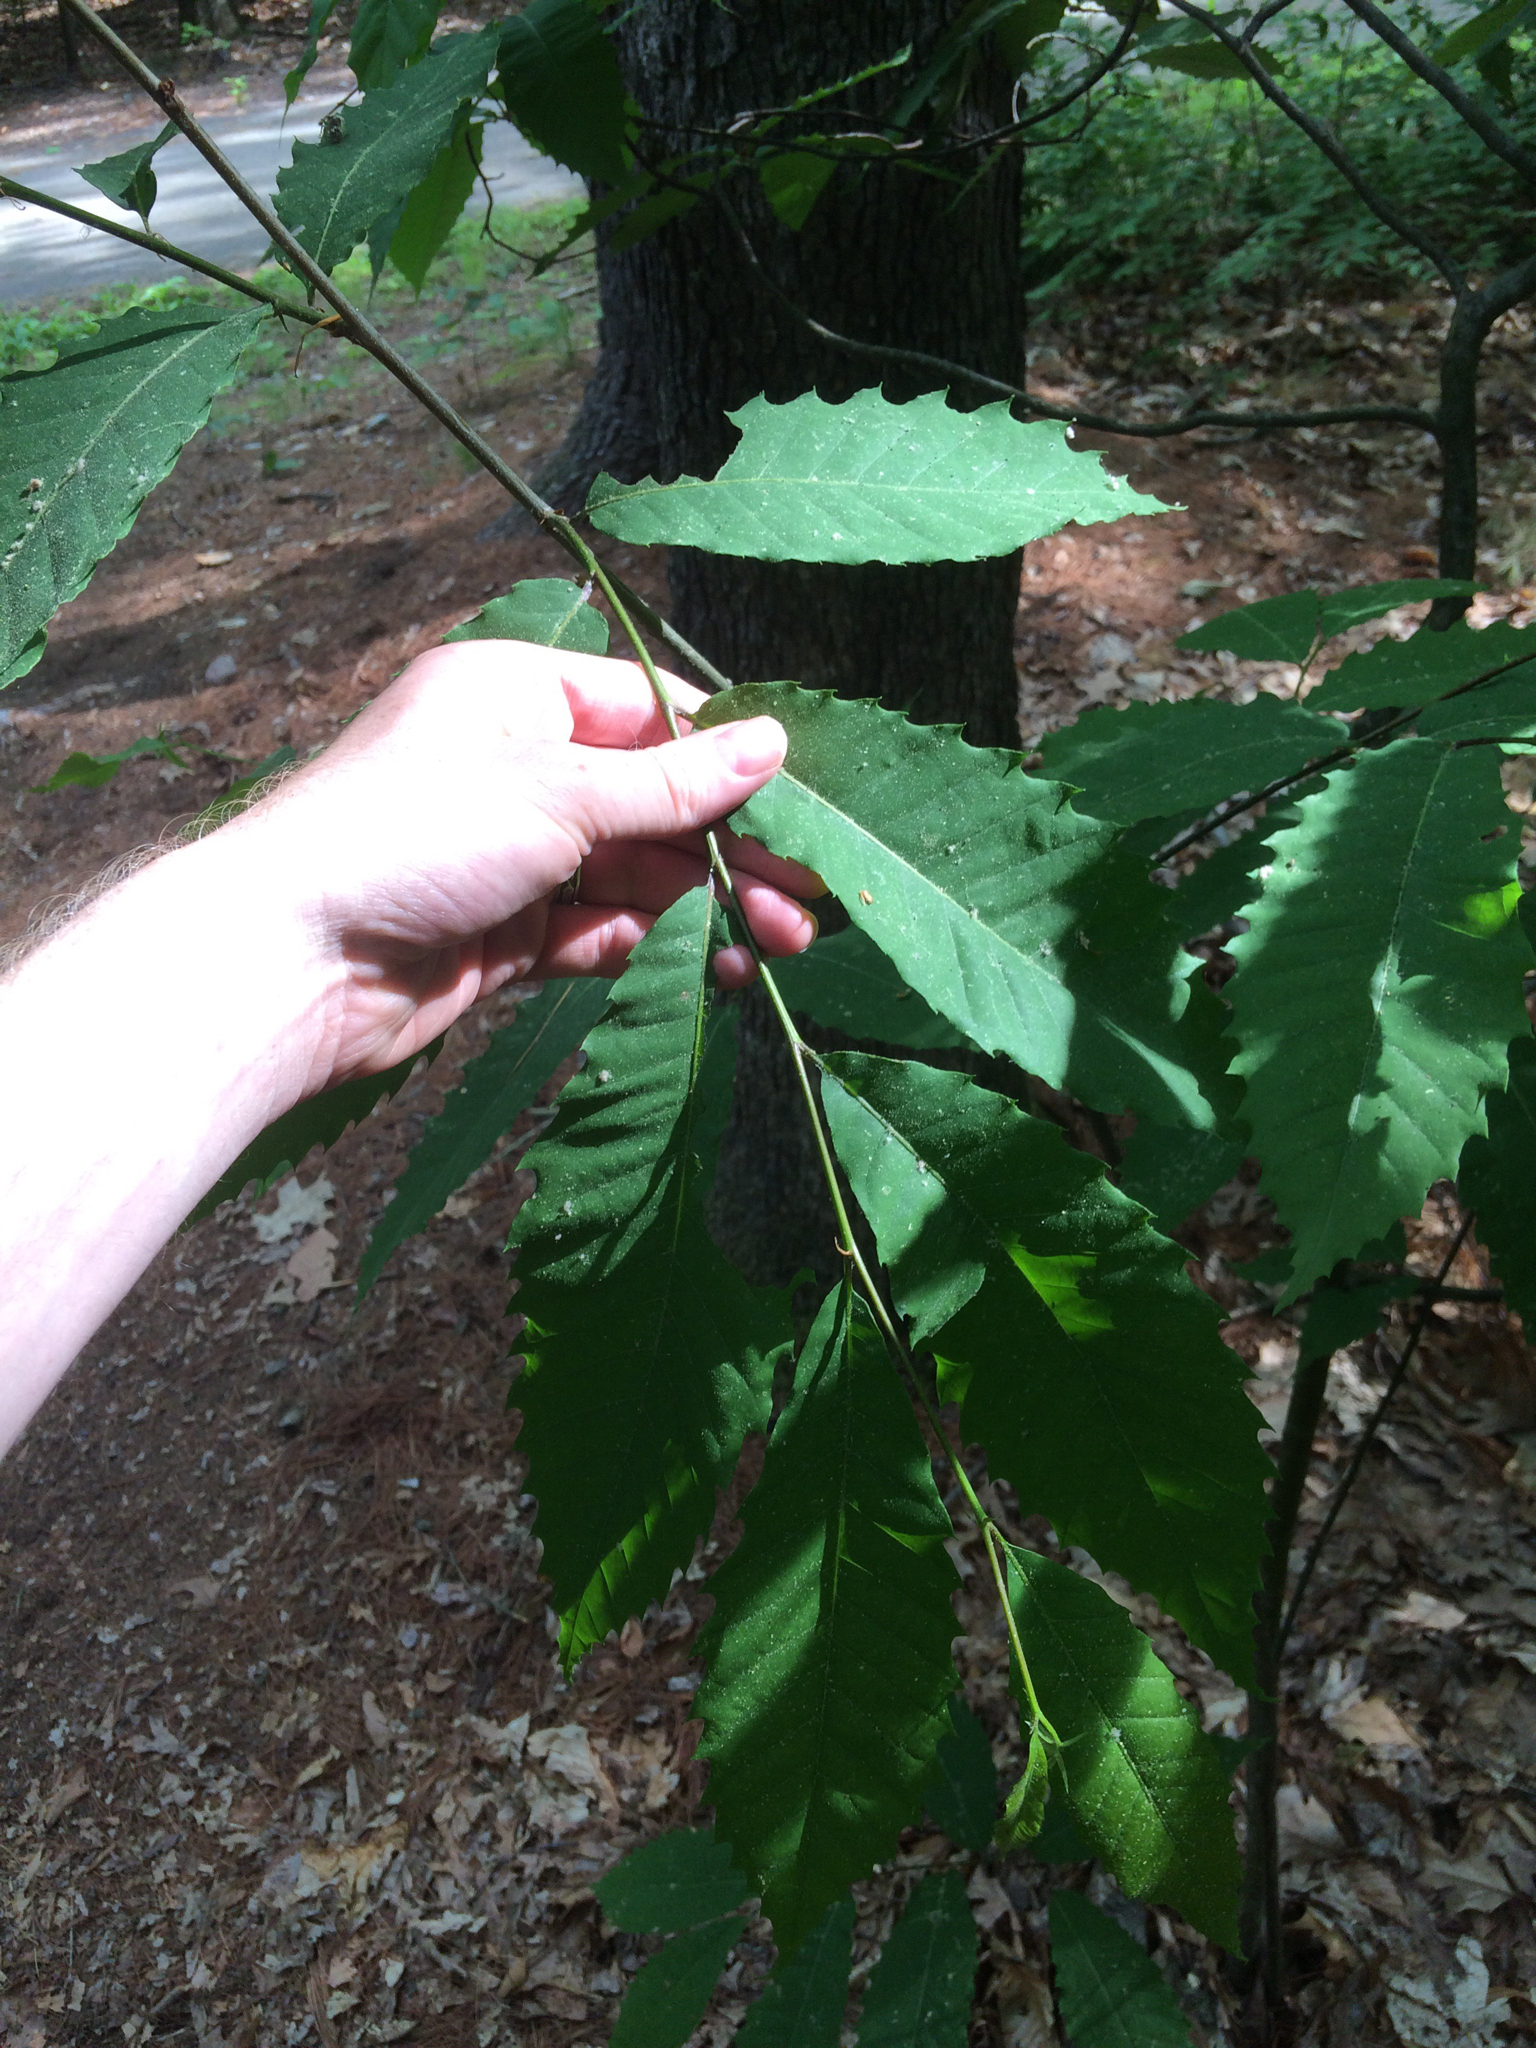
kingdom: Plantae
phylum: Tracheophyta
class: Magnoliopsida
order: Fagales
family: Fagaceae
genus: Castanea
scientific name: Castanea dentata
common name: American chestnut
